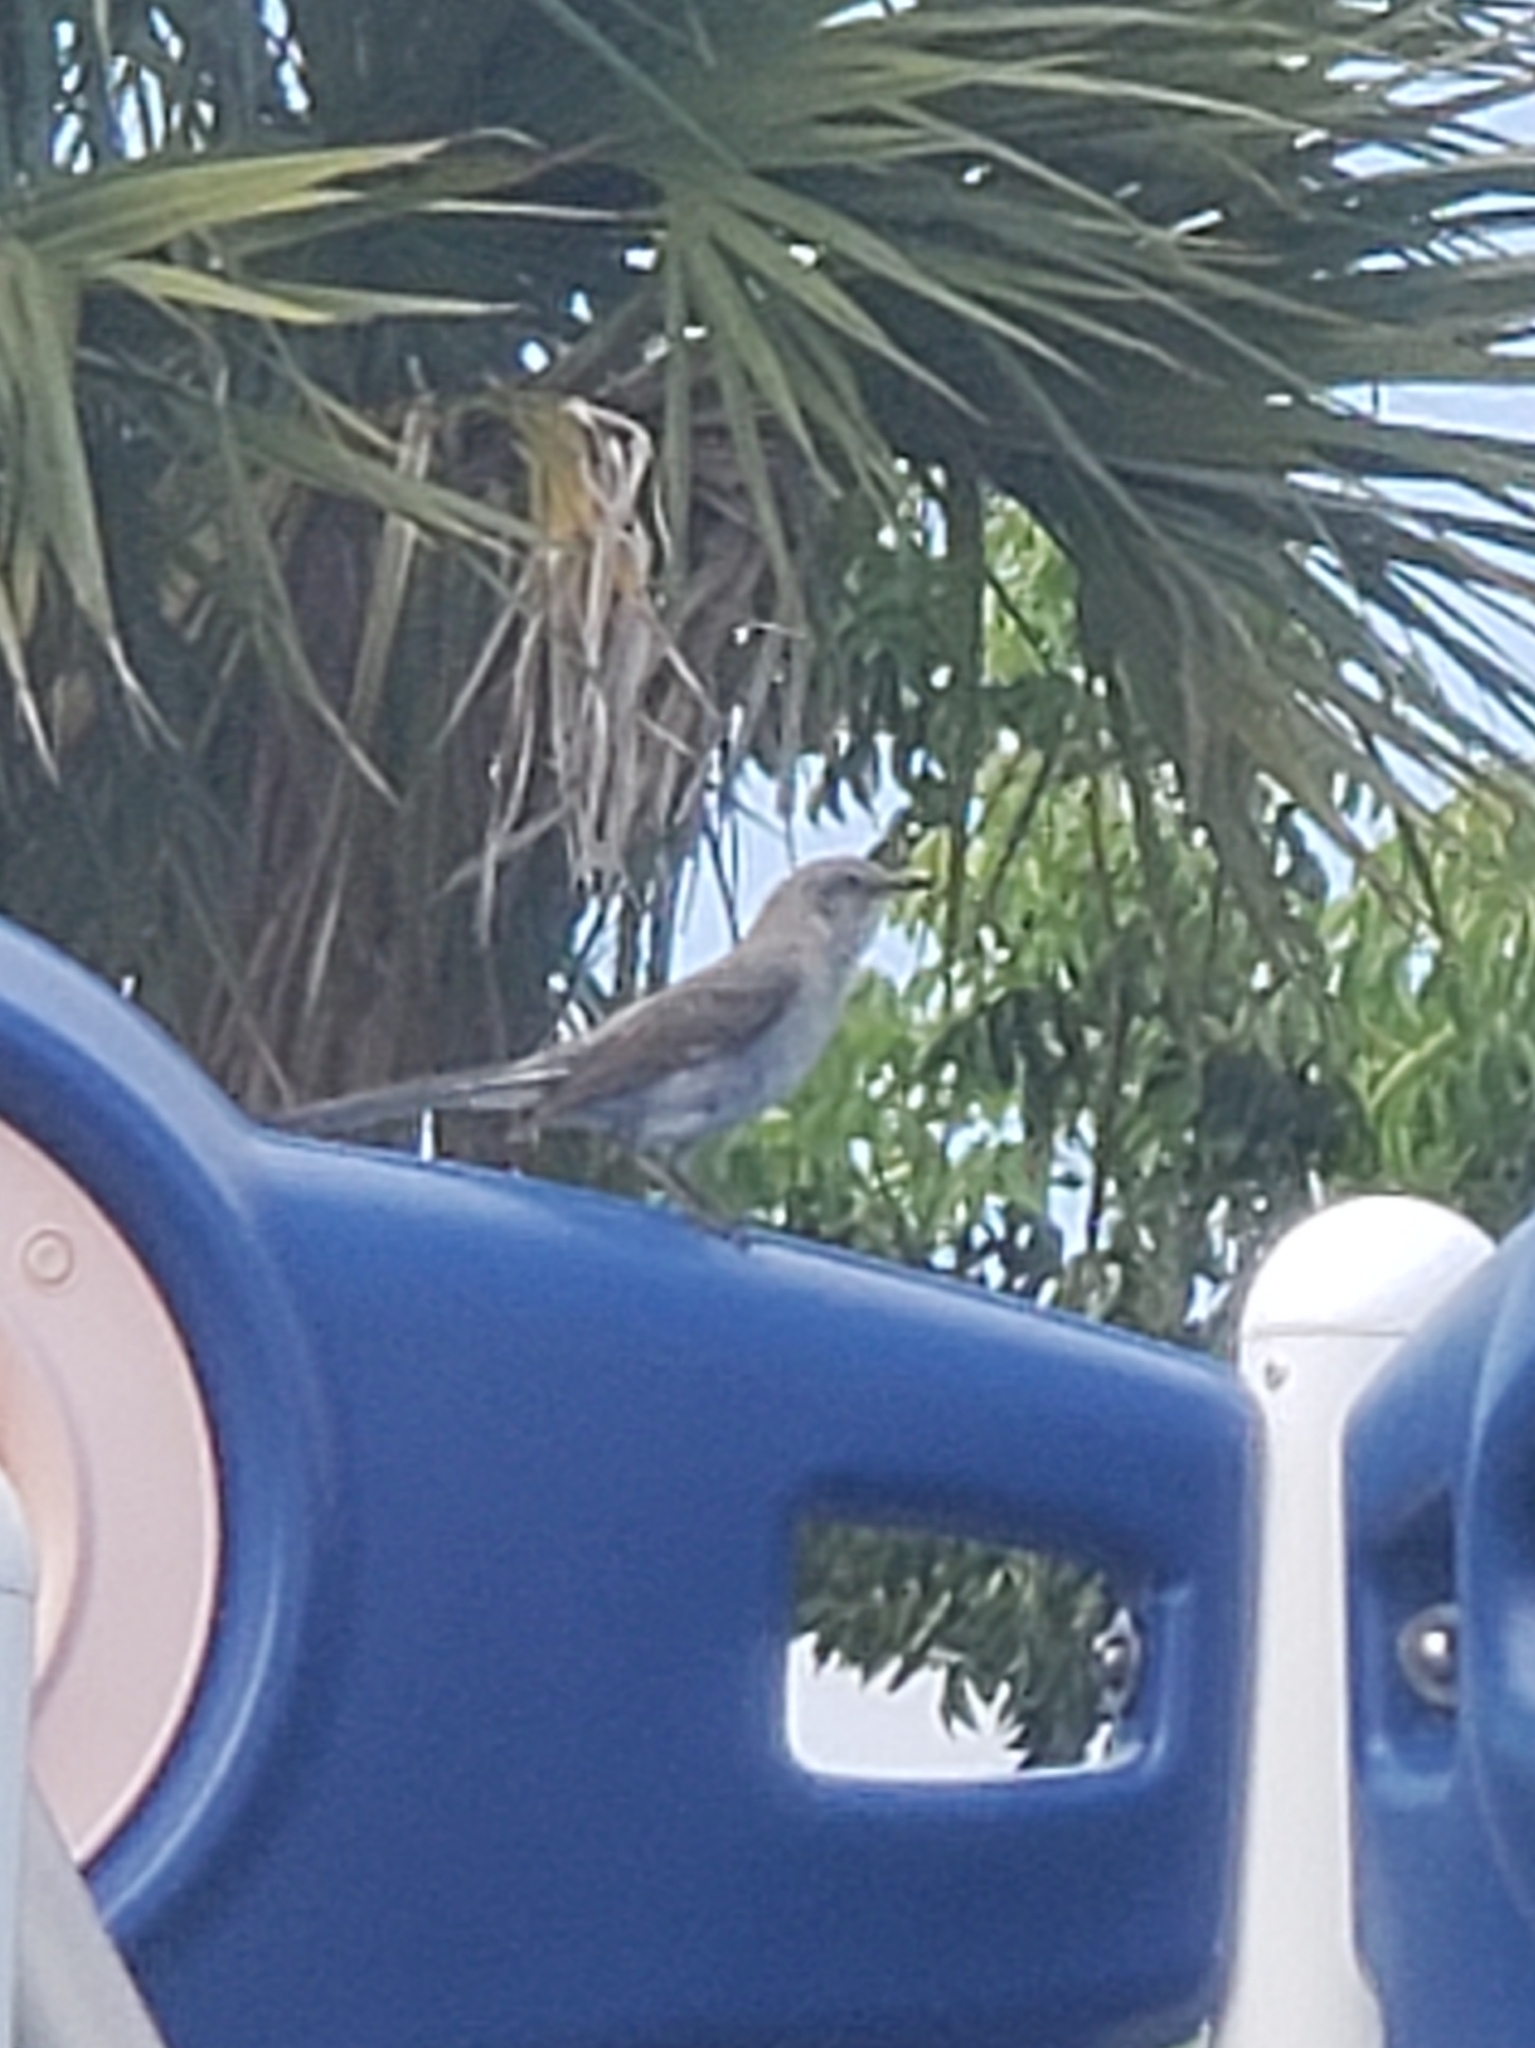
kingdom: Animalia
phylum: Chordata
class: Aves
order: Passeriformes
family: Mimidae
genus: Mimus
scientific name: Mimus polyglottos
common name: Northern mockingbird
